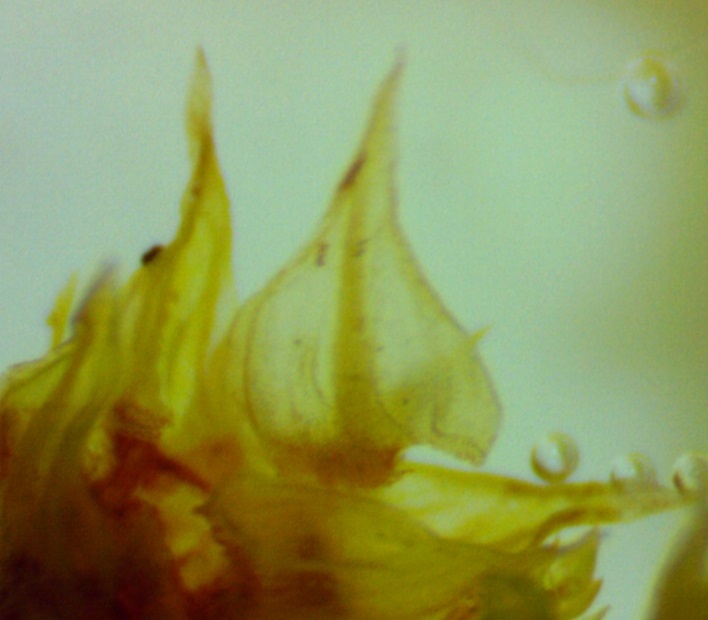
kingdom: Plantae
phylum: Bryophyta
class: Bryopsida
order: Hypnales
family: Thuidiaceae
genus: Thuidium
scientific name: Thuidium delicatulum
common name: Delicate fern moss
